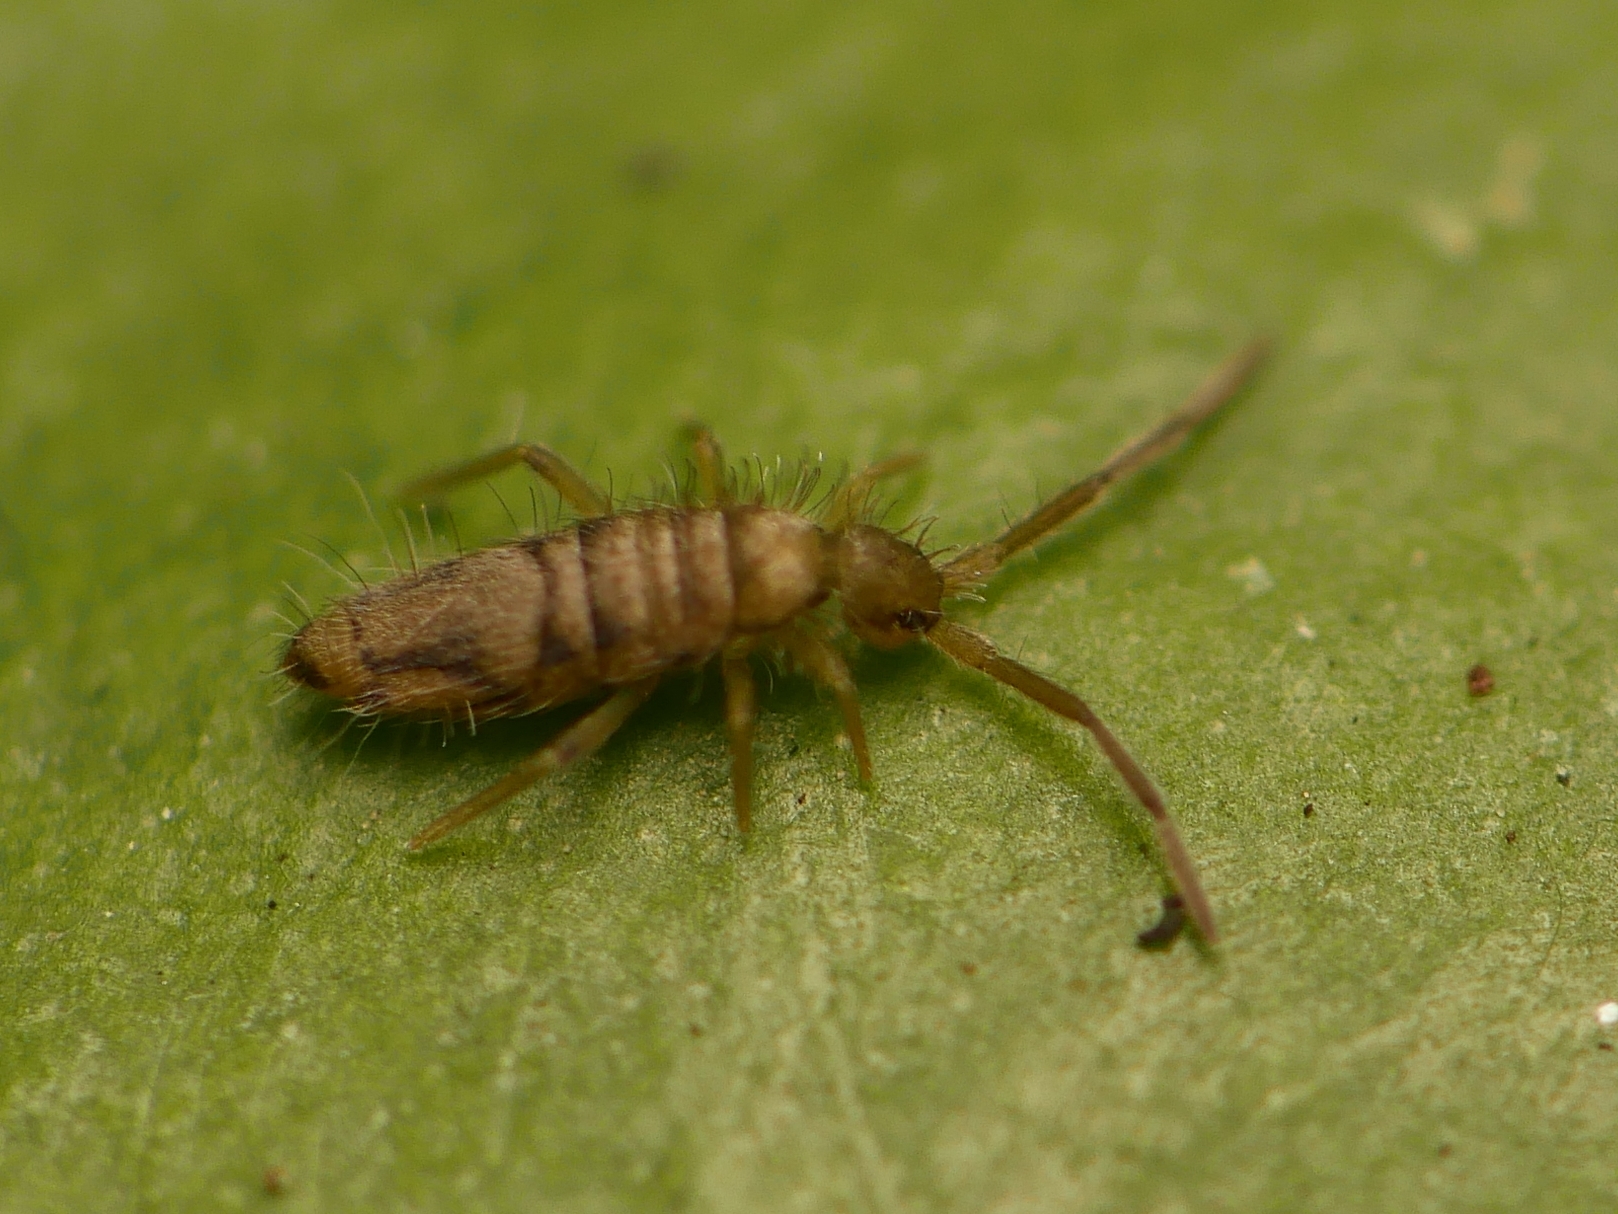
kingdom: Animalia
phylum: Arthropoda
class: Collembola
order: Entomobryomorpha
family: Entomobryidae
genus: Entomobrya
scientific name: Entomobrya nivalis
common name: Cosmopolitan springtail
